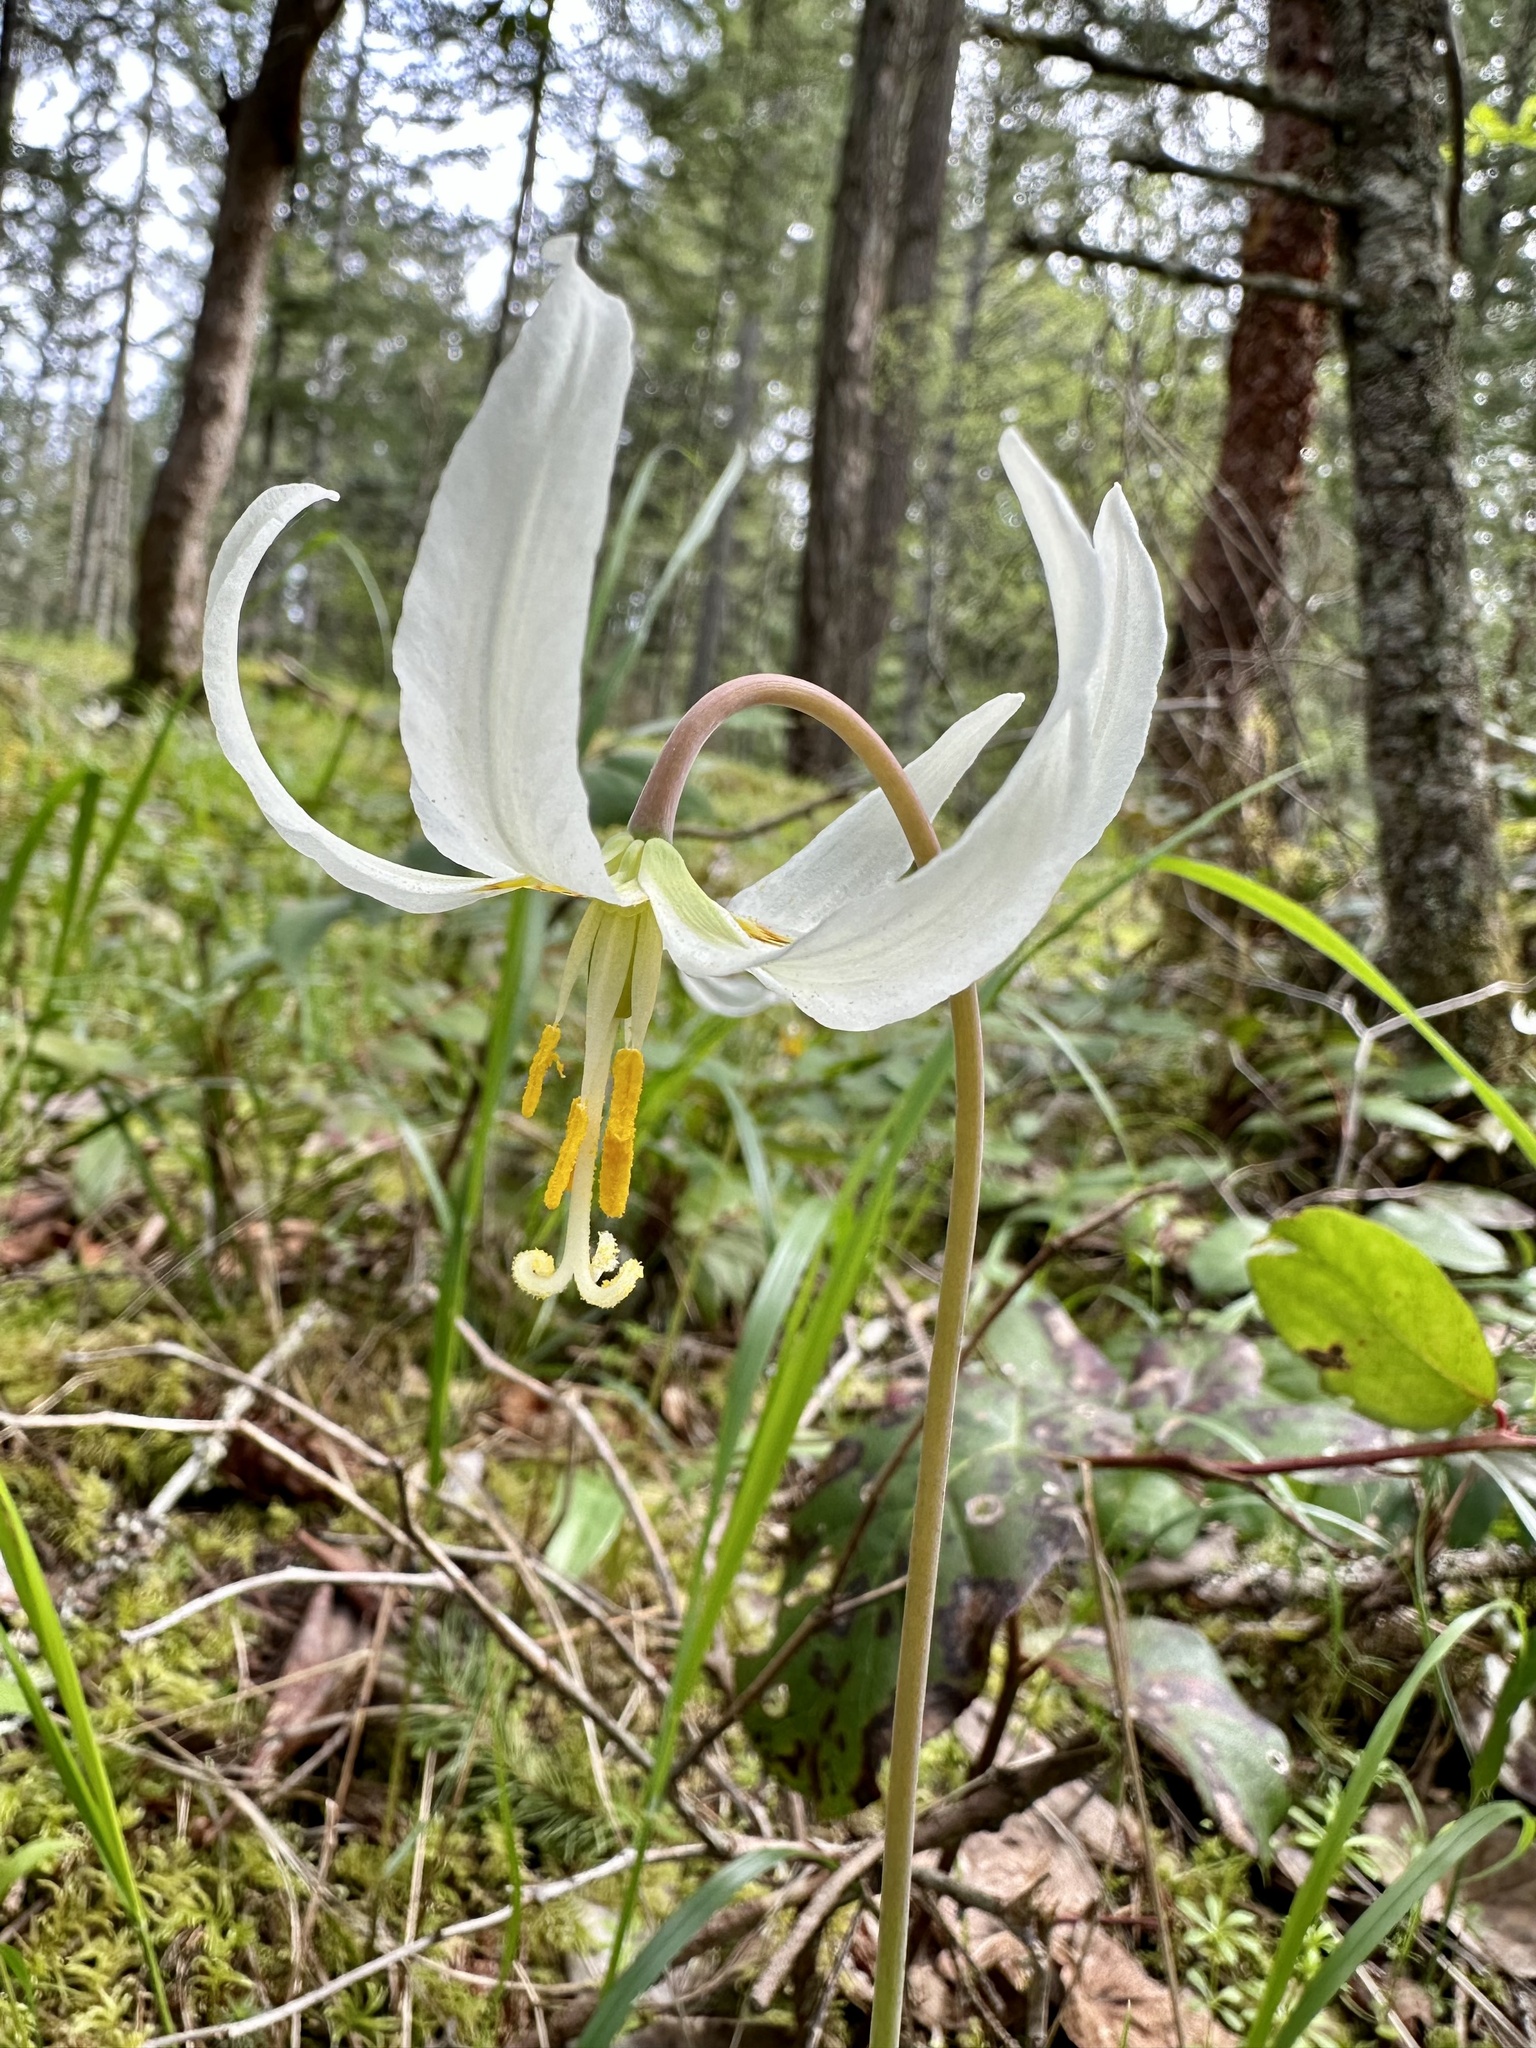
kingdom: Plantae
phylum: Tracheophyta
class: Liliopsida
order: Liliales
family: Liliaceae
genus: Erythronium
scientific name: Erythronium oregonum
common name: Giant adder's-tongue
